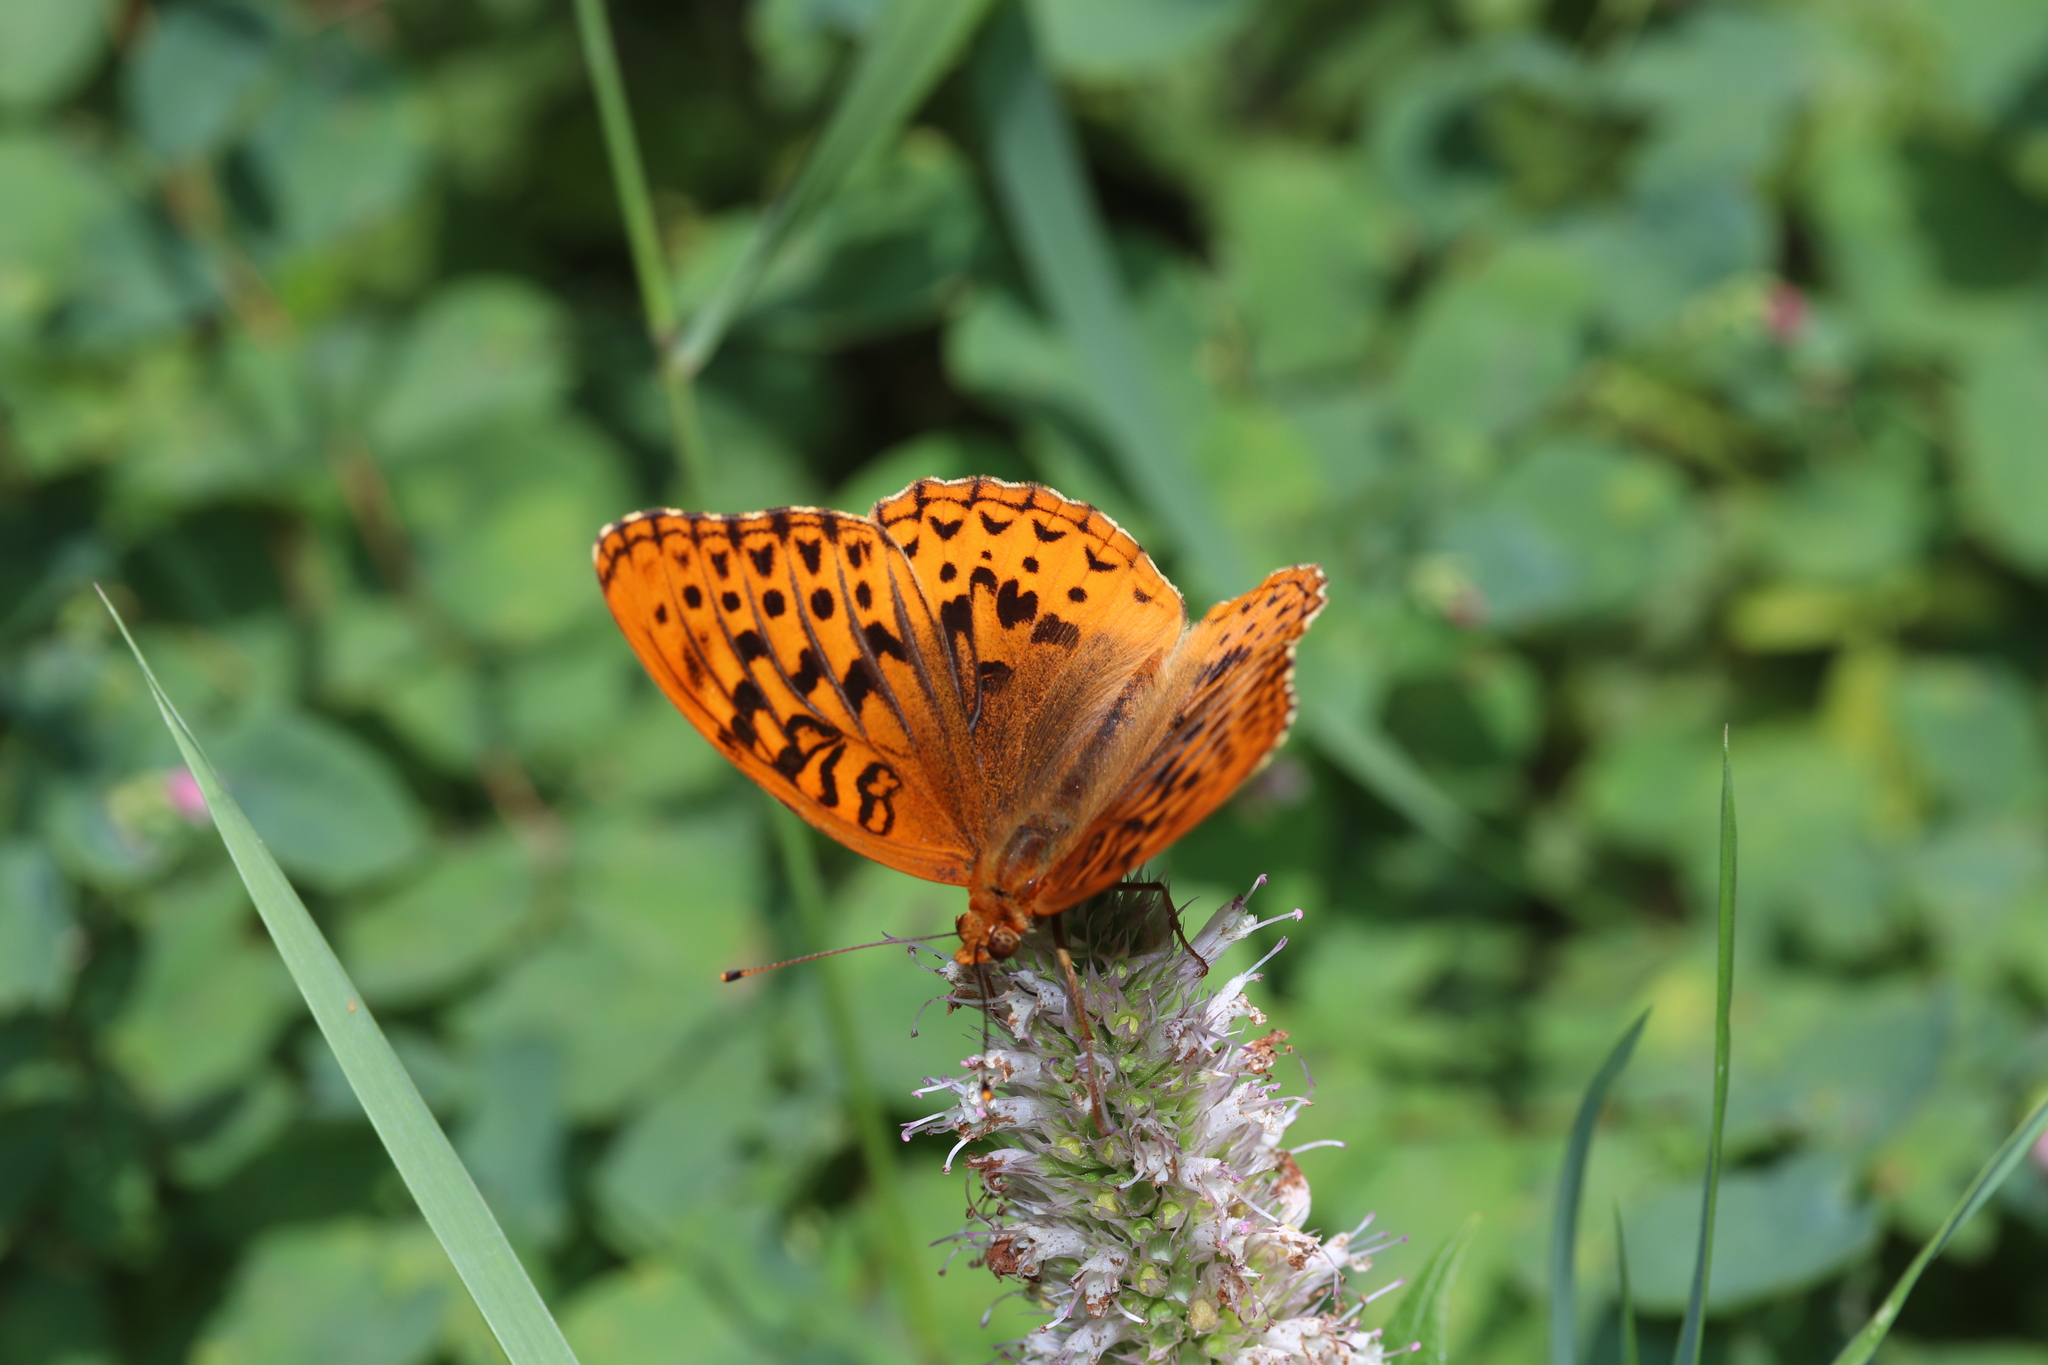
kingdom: Animalia
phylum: Arthropoda
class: Insecta
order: Lepidoptera
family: Nymphalidae
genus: Speyeria
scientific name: Speyeria cybele
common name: Great spangled fritillary
